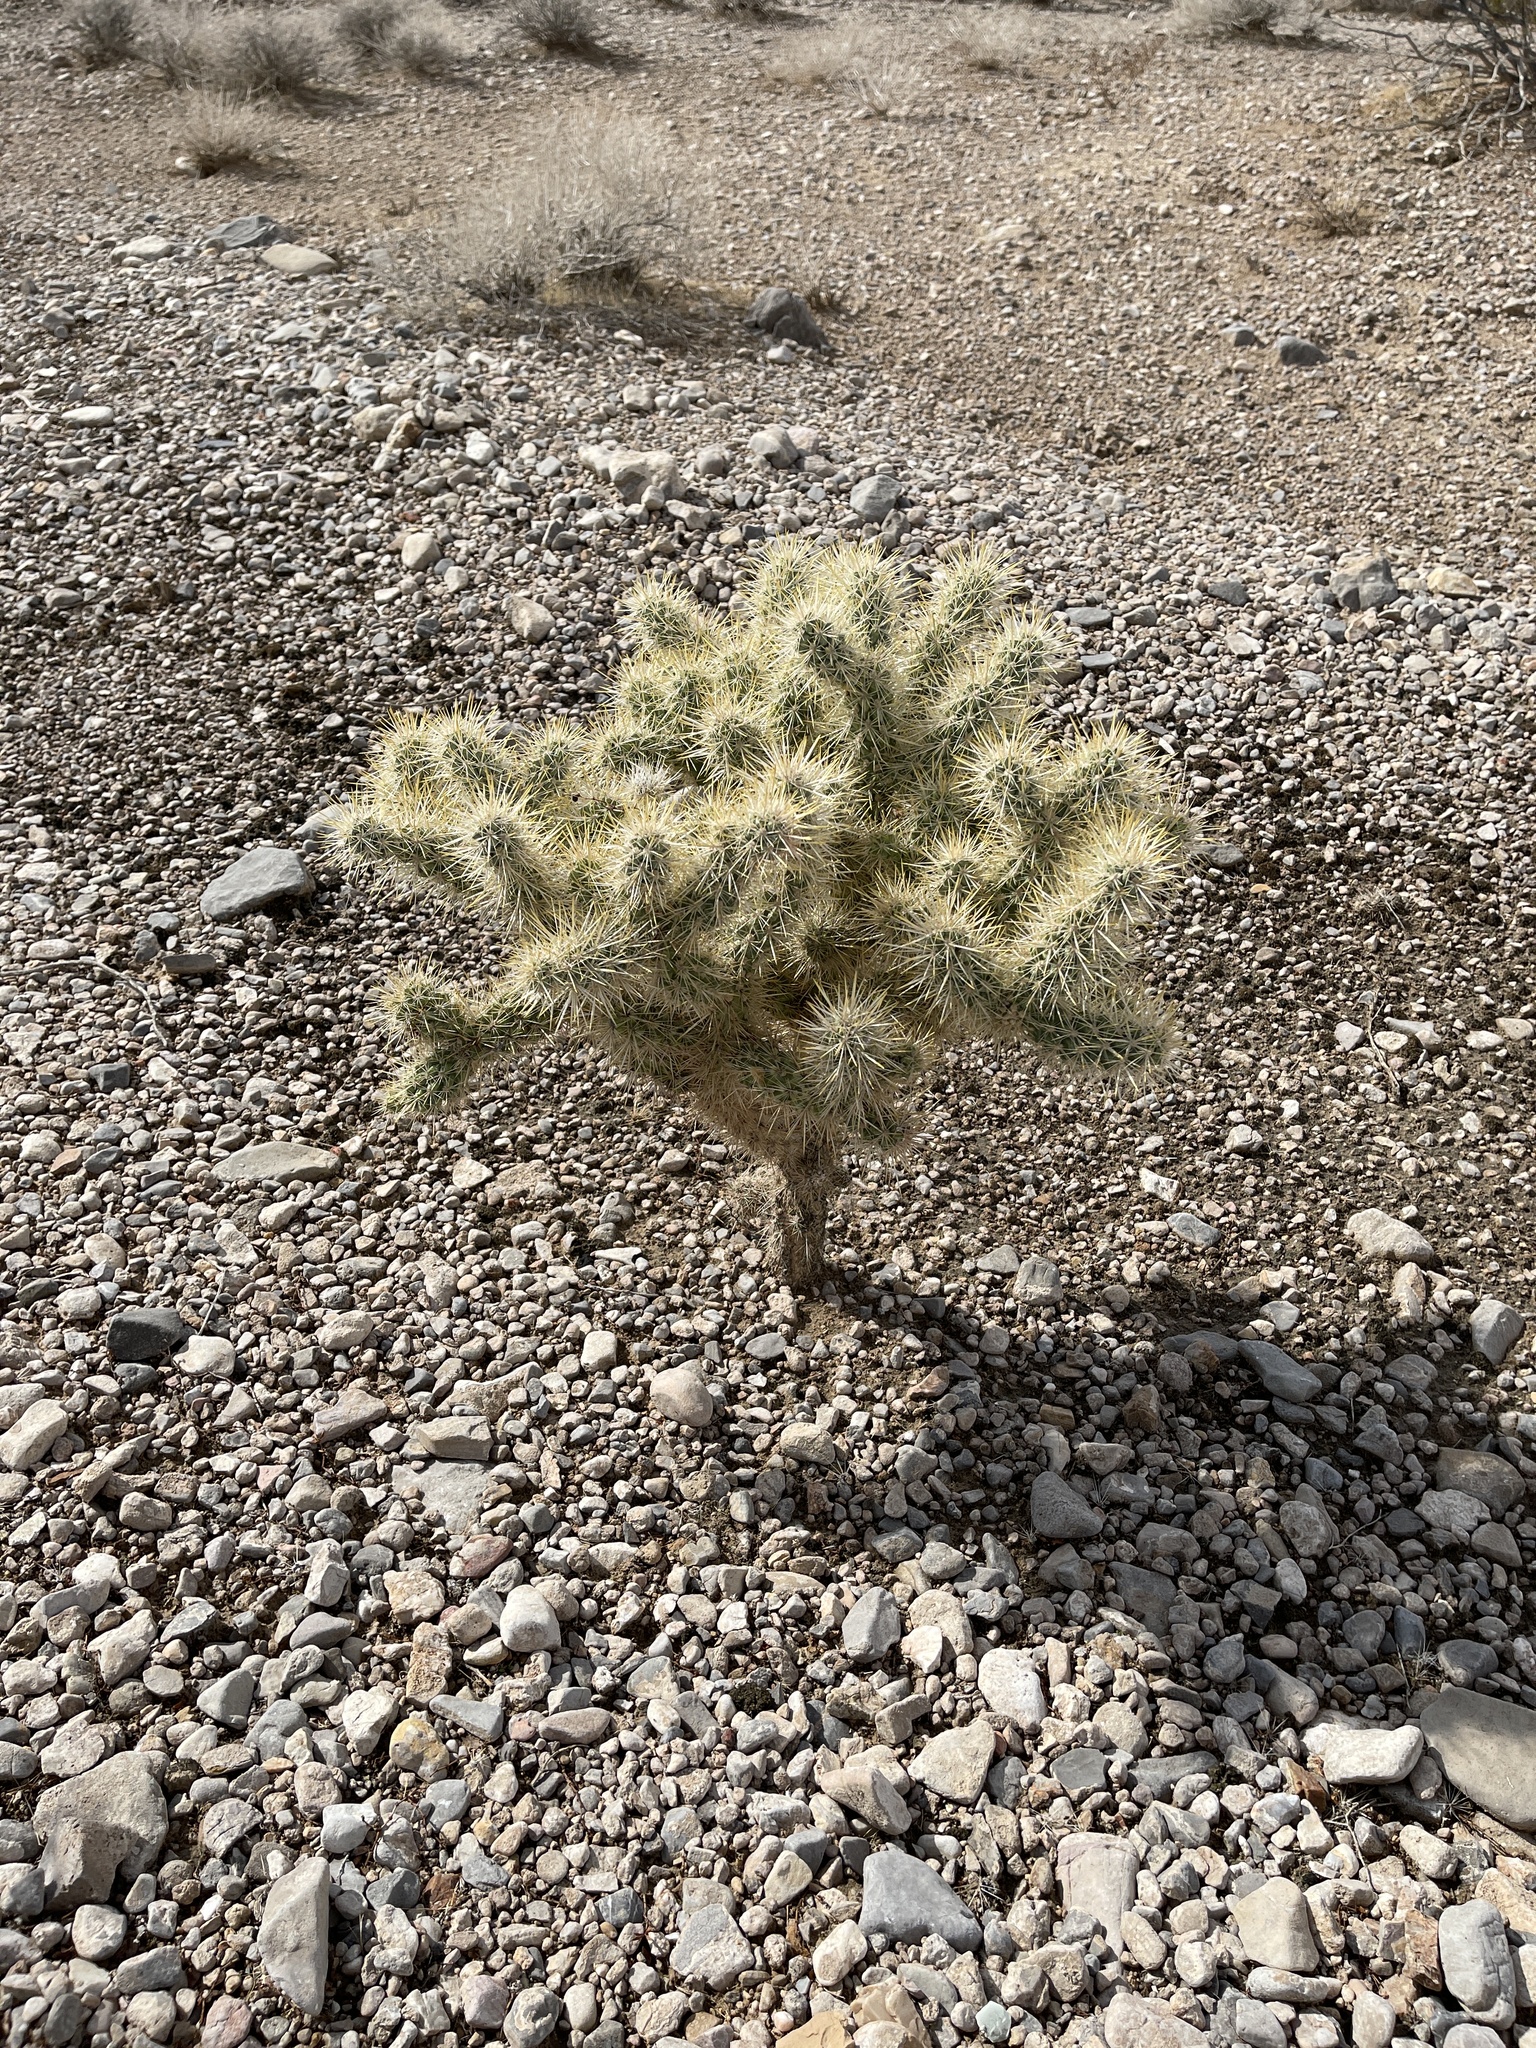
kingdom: Plantae
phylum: Tracheophyta
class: Magnoliopsida
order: Caryophyllales
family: Cactaceae
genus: Cylindropuntia
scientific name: Cylindropuntia echinocarpa
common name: Ground cholla
